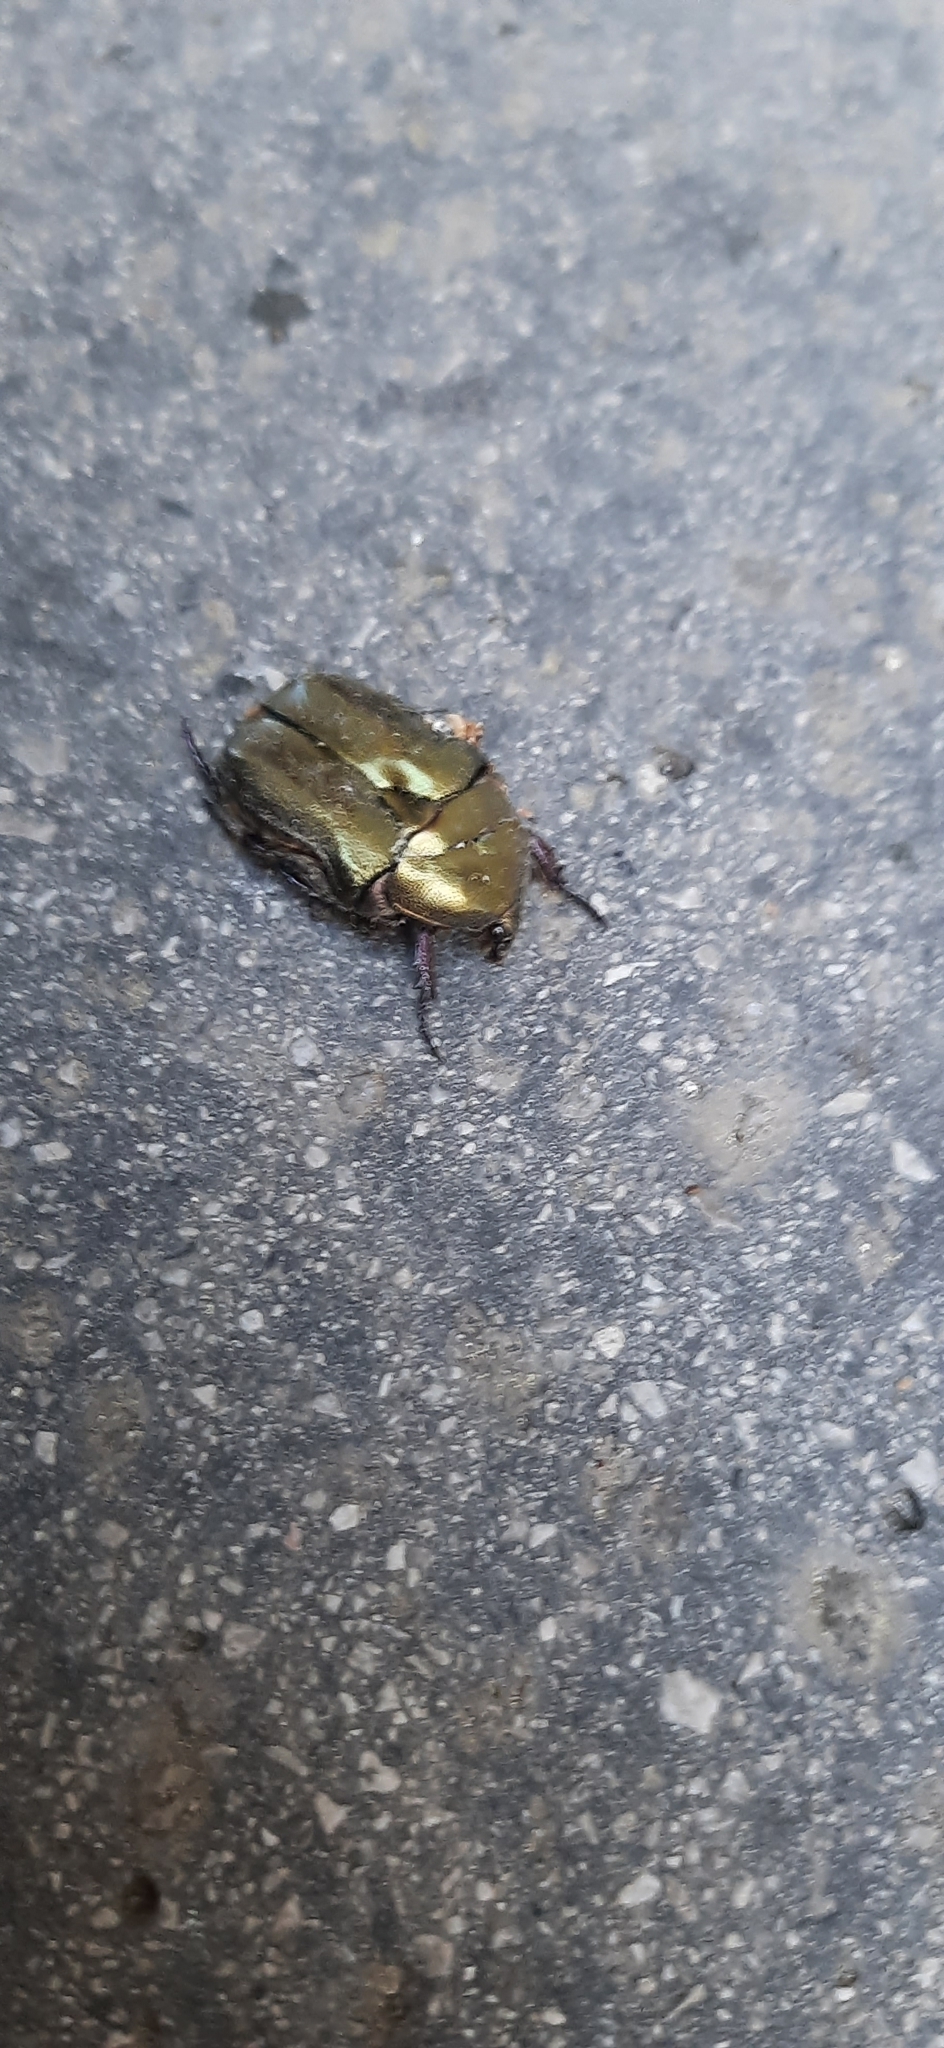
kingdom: Animalia
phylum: Arthropoda
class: Insecta
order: Coleoptera
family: Scarabaeidae
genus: Protaetia
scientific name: Protaetia cuprea
